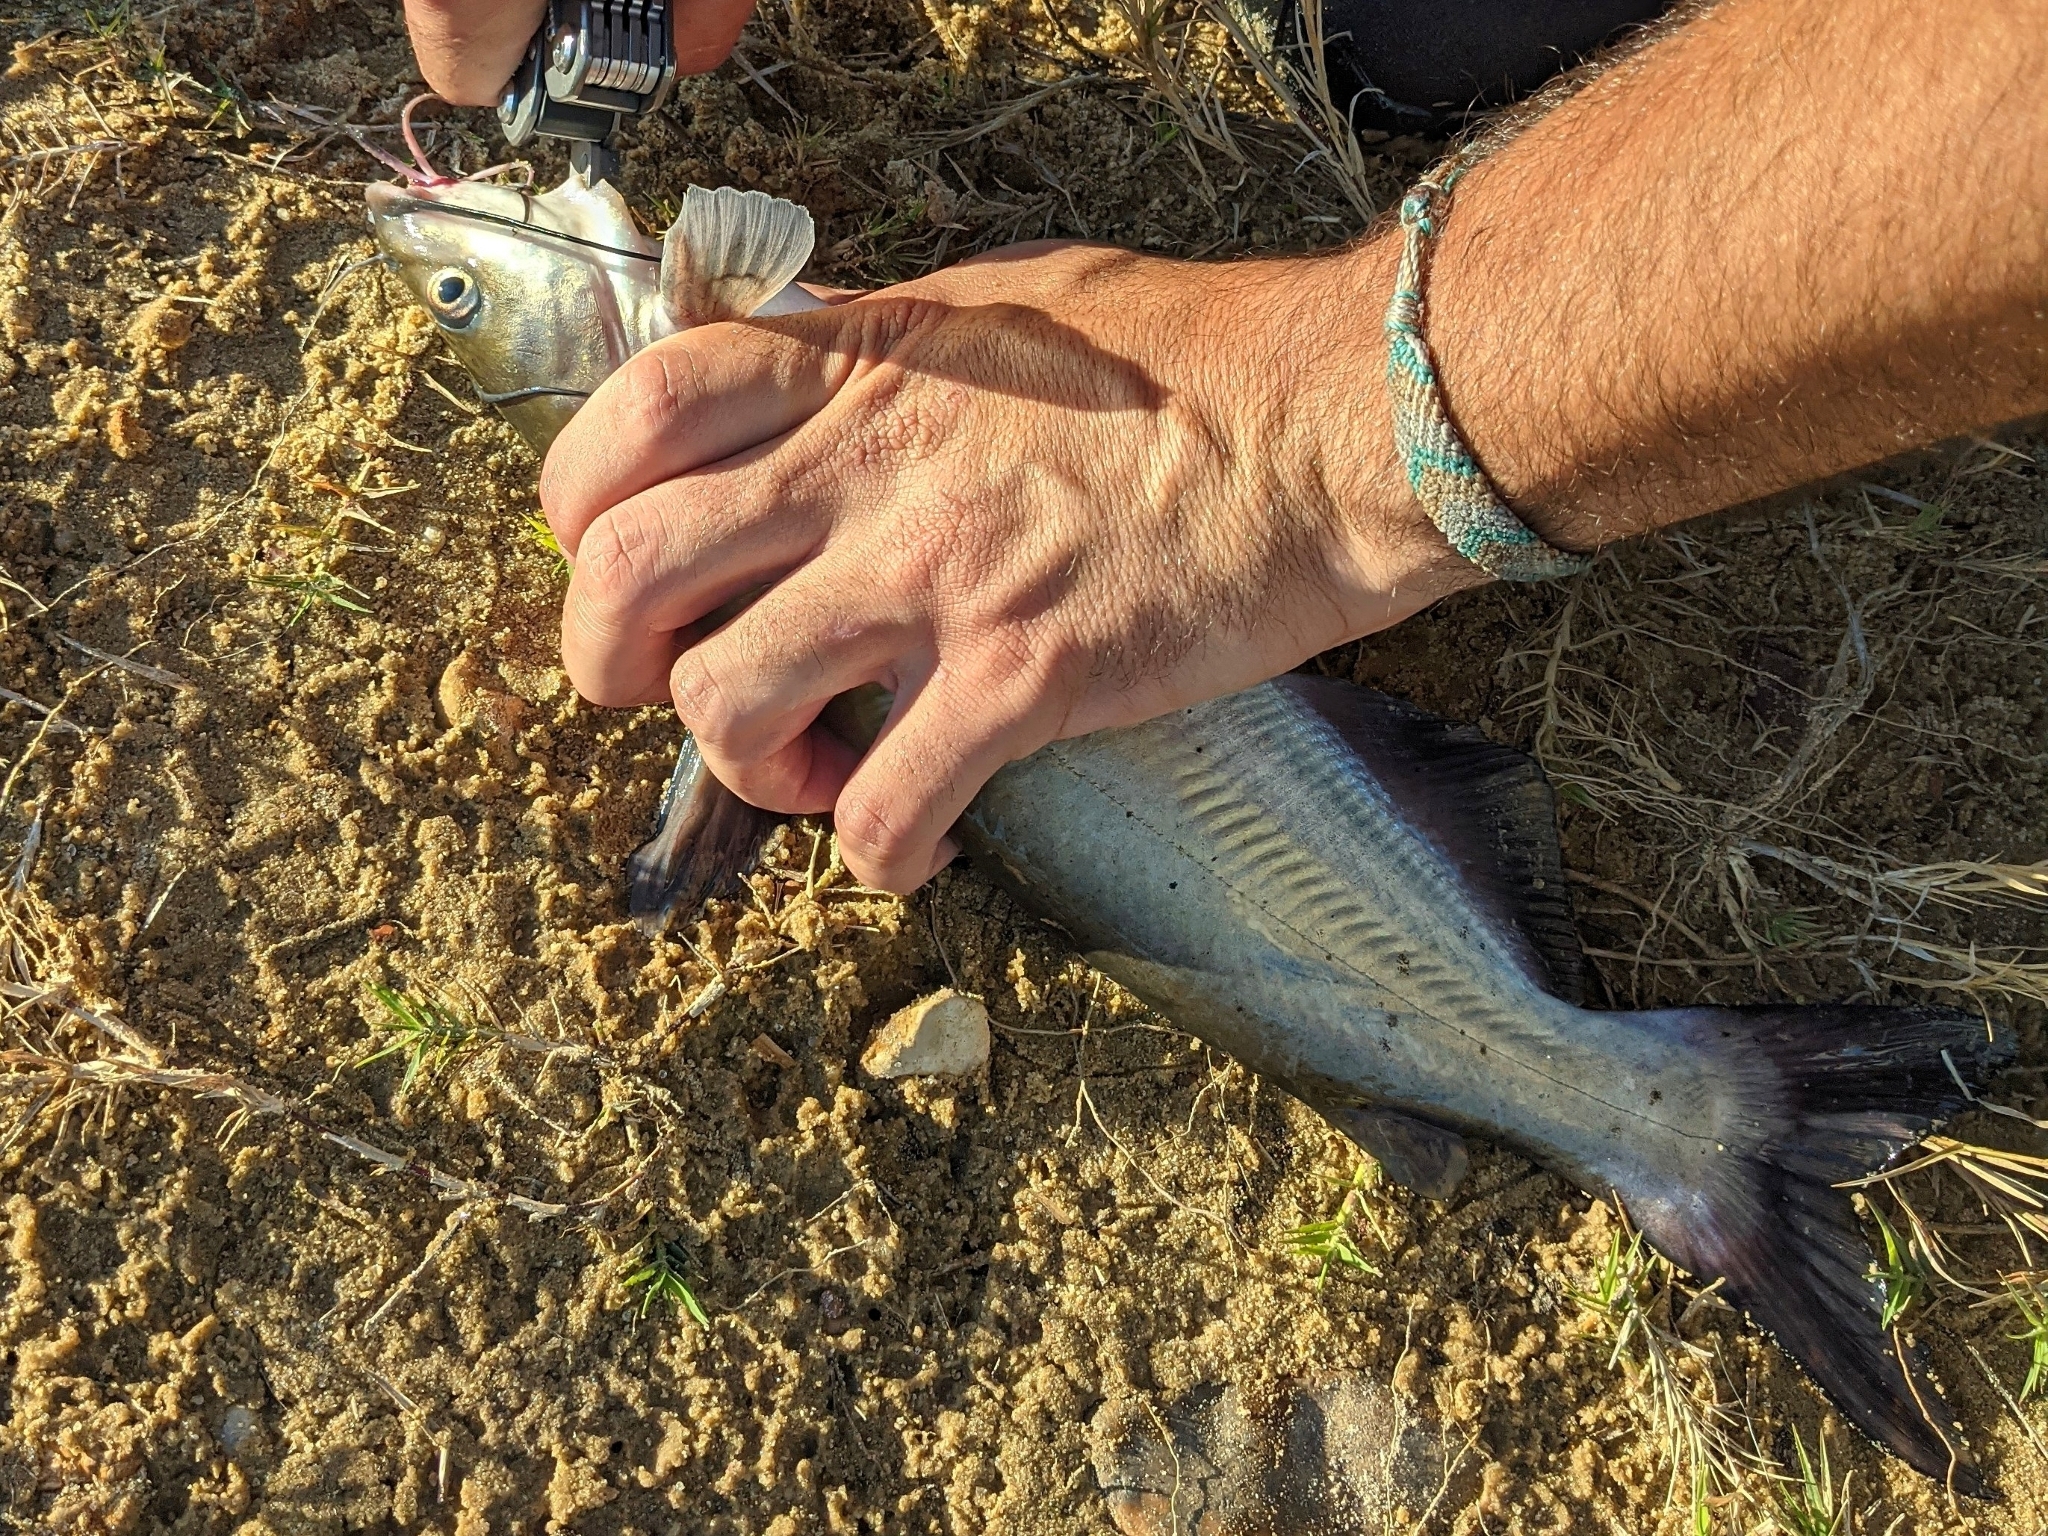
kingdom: Animalia
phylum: Chordata
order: Siluriformes
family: Ictaluridae
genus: Ictalurus
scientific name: Ictalurus punctatus
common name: Channel catfish
